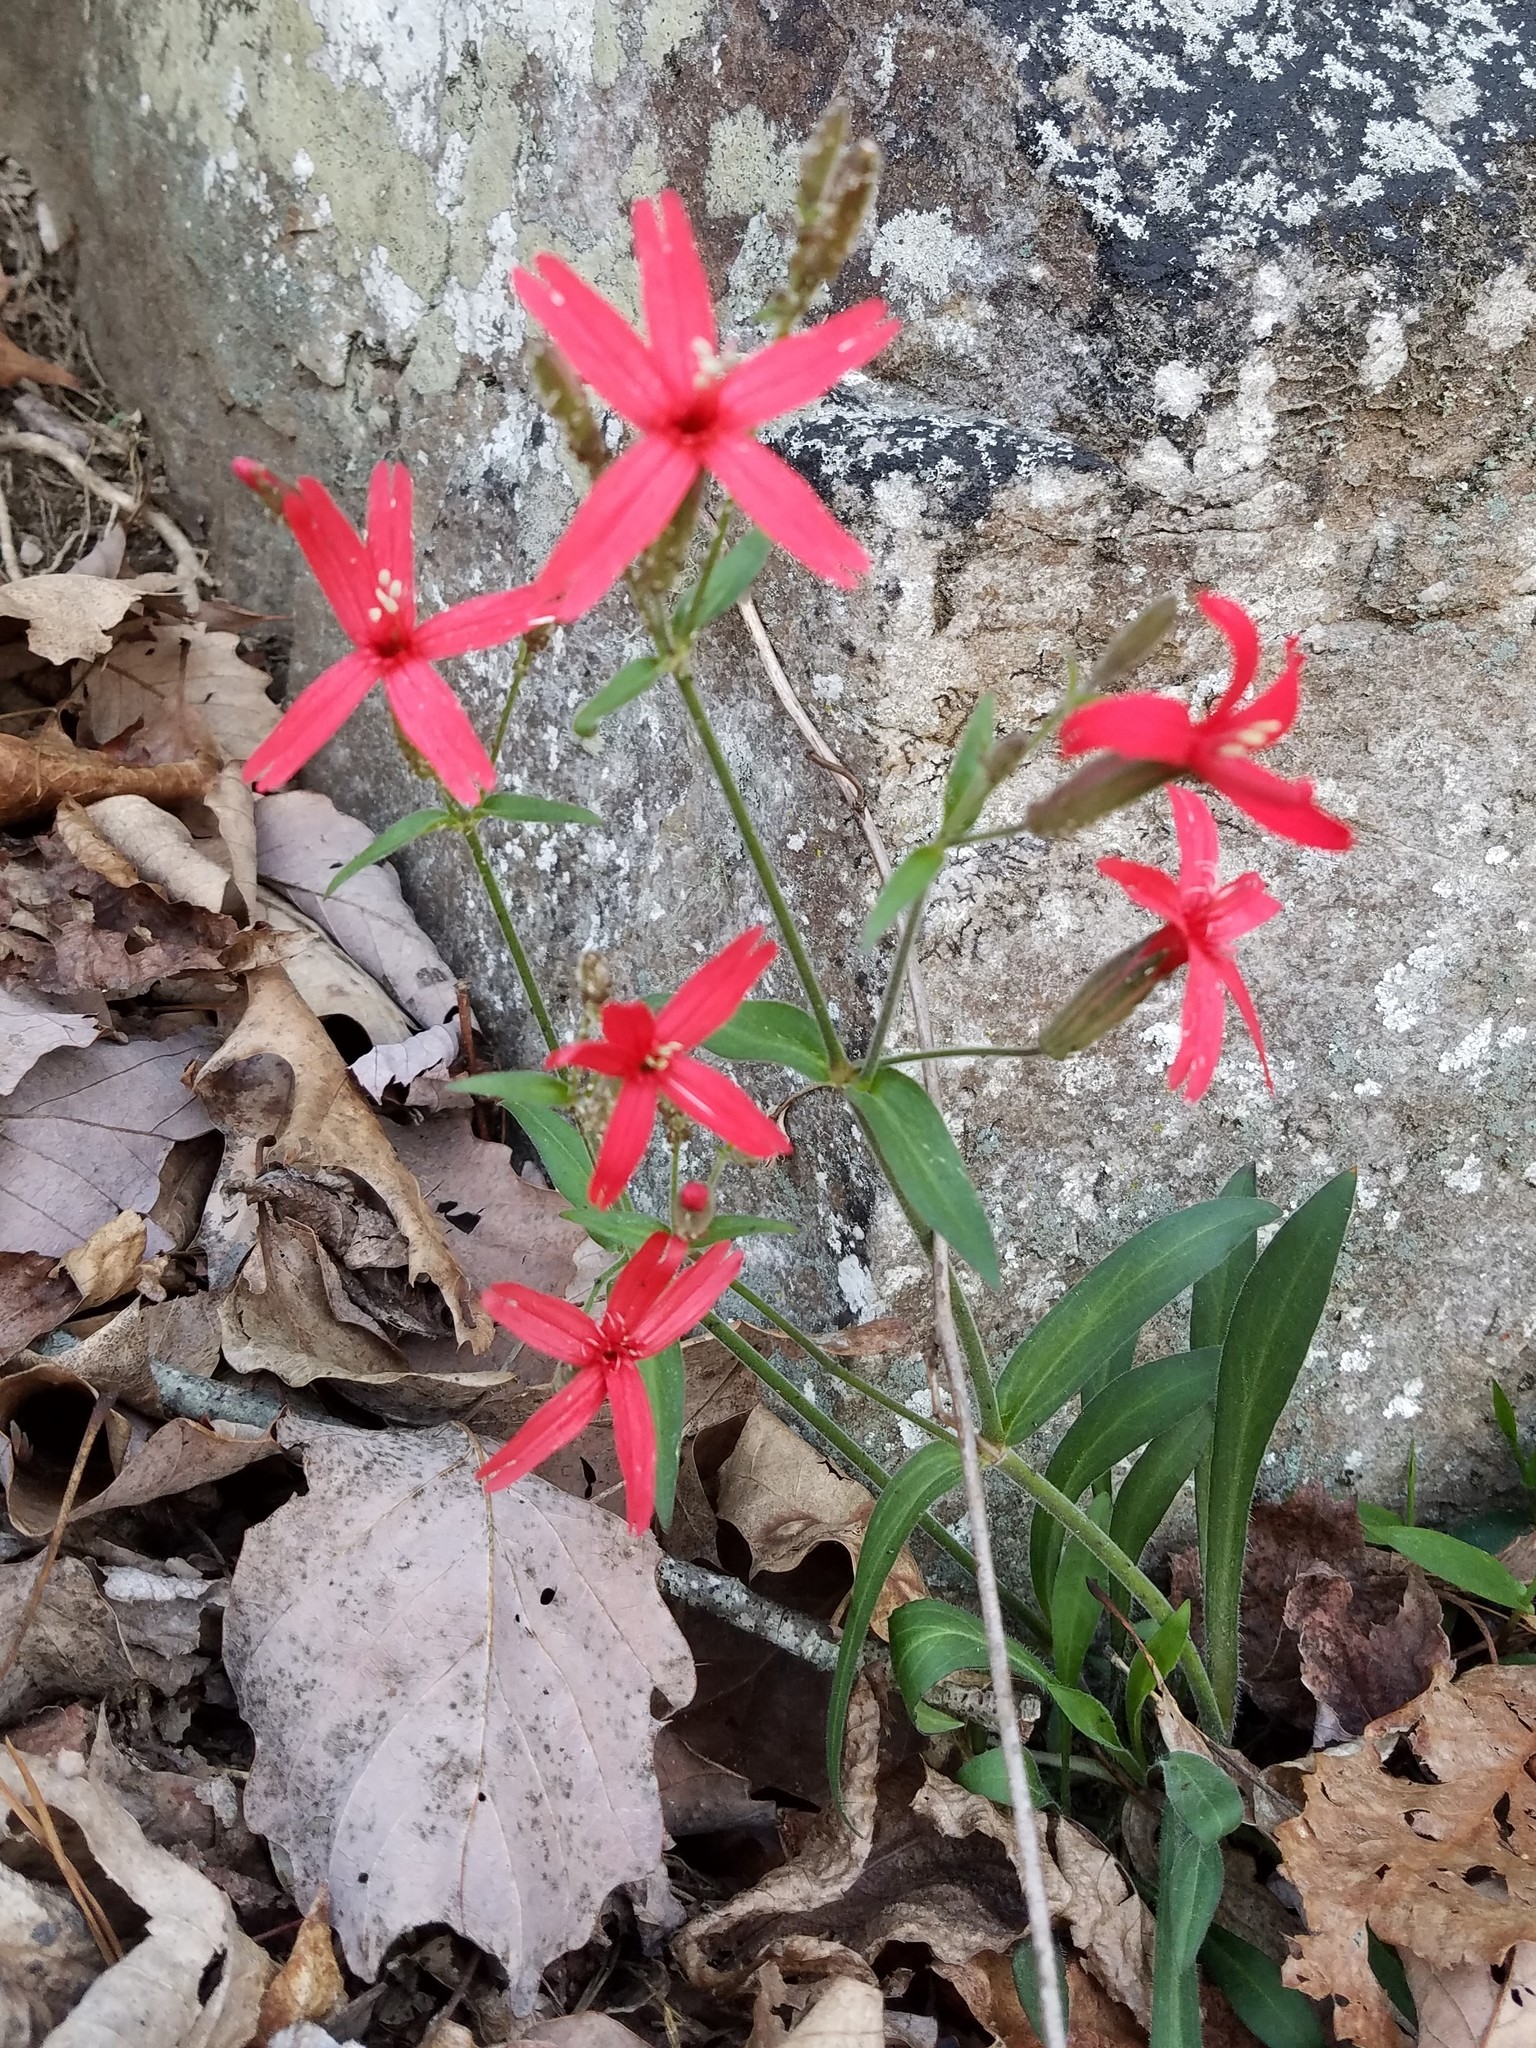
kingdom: Plantae
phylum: Tracheophyta
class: Magnoliopsida
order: Caryophyllales
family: Caryophyllaceae
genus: Silene
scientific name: Silene virginica
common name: Fire-pink
